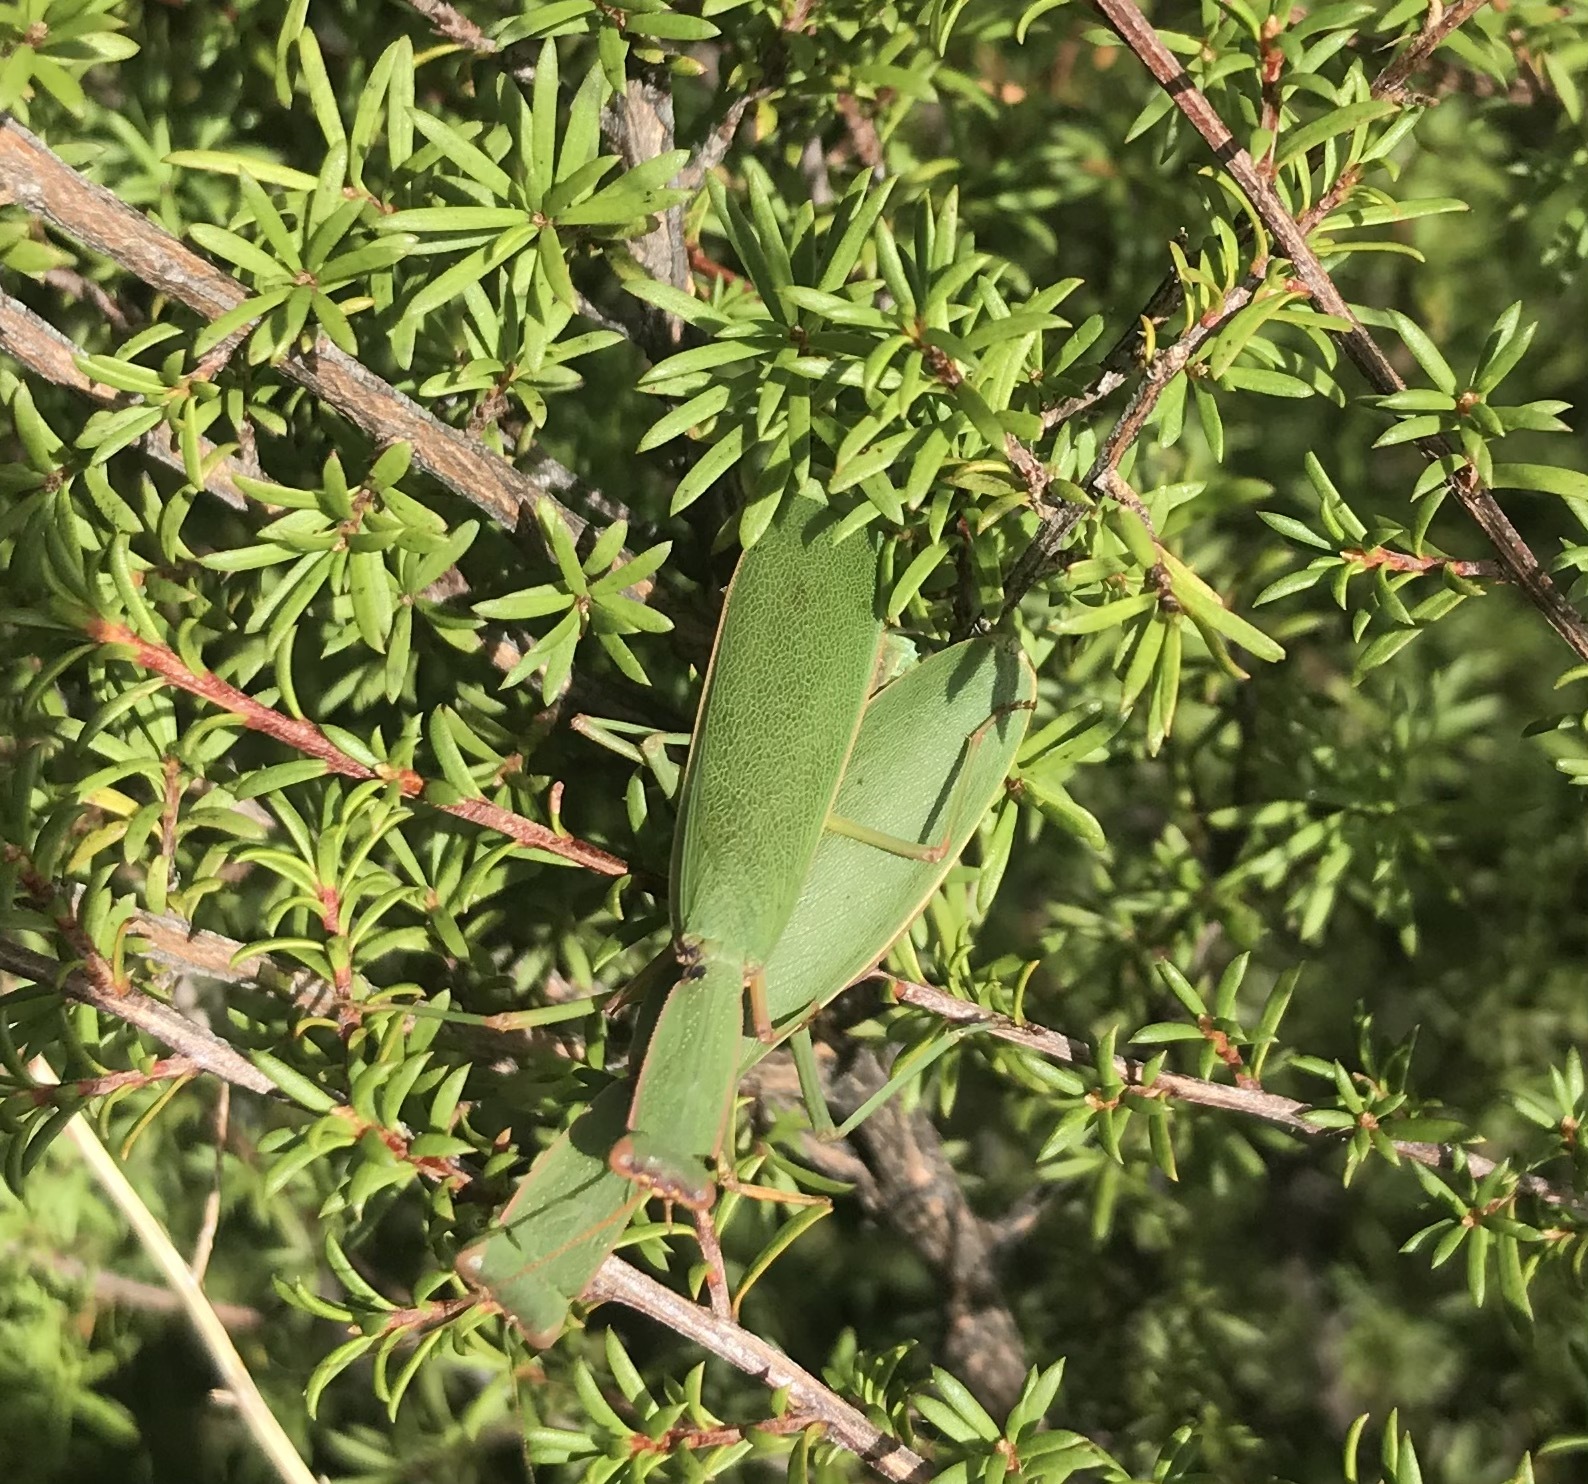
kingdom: Animalia
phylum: Arthropoda
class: Insecta
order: Mantodea
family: Mantidae
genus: Orthodera
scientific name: Orthodera novaezealandiae
